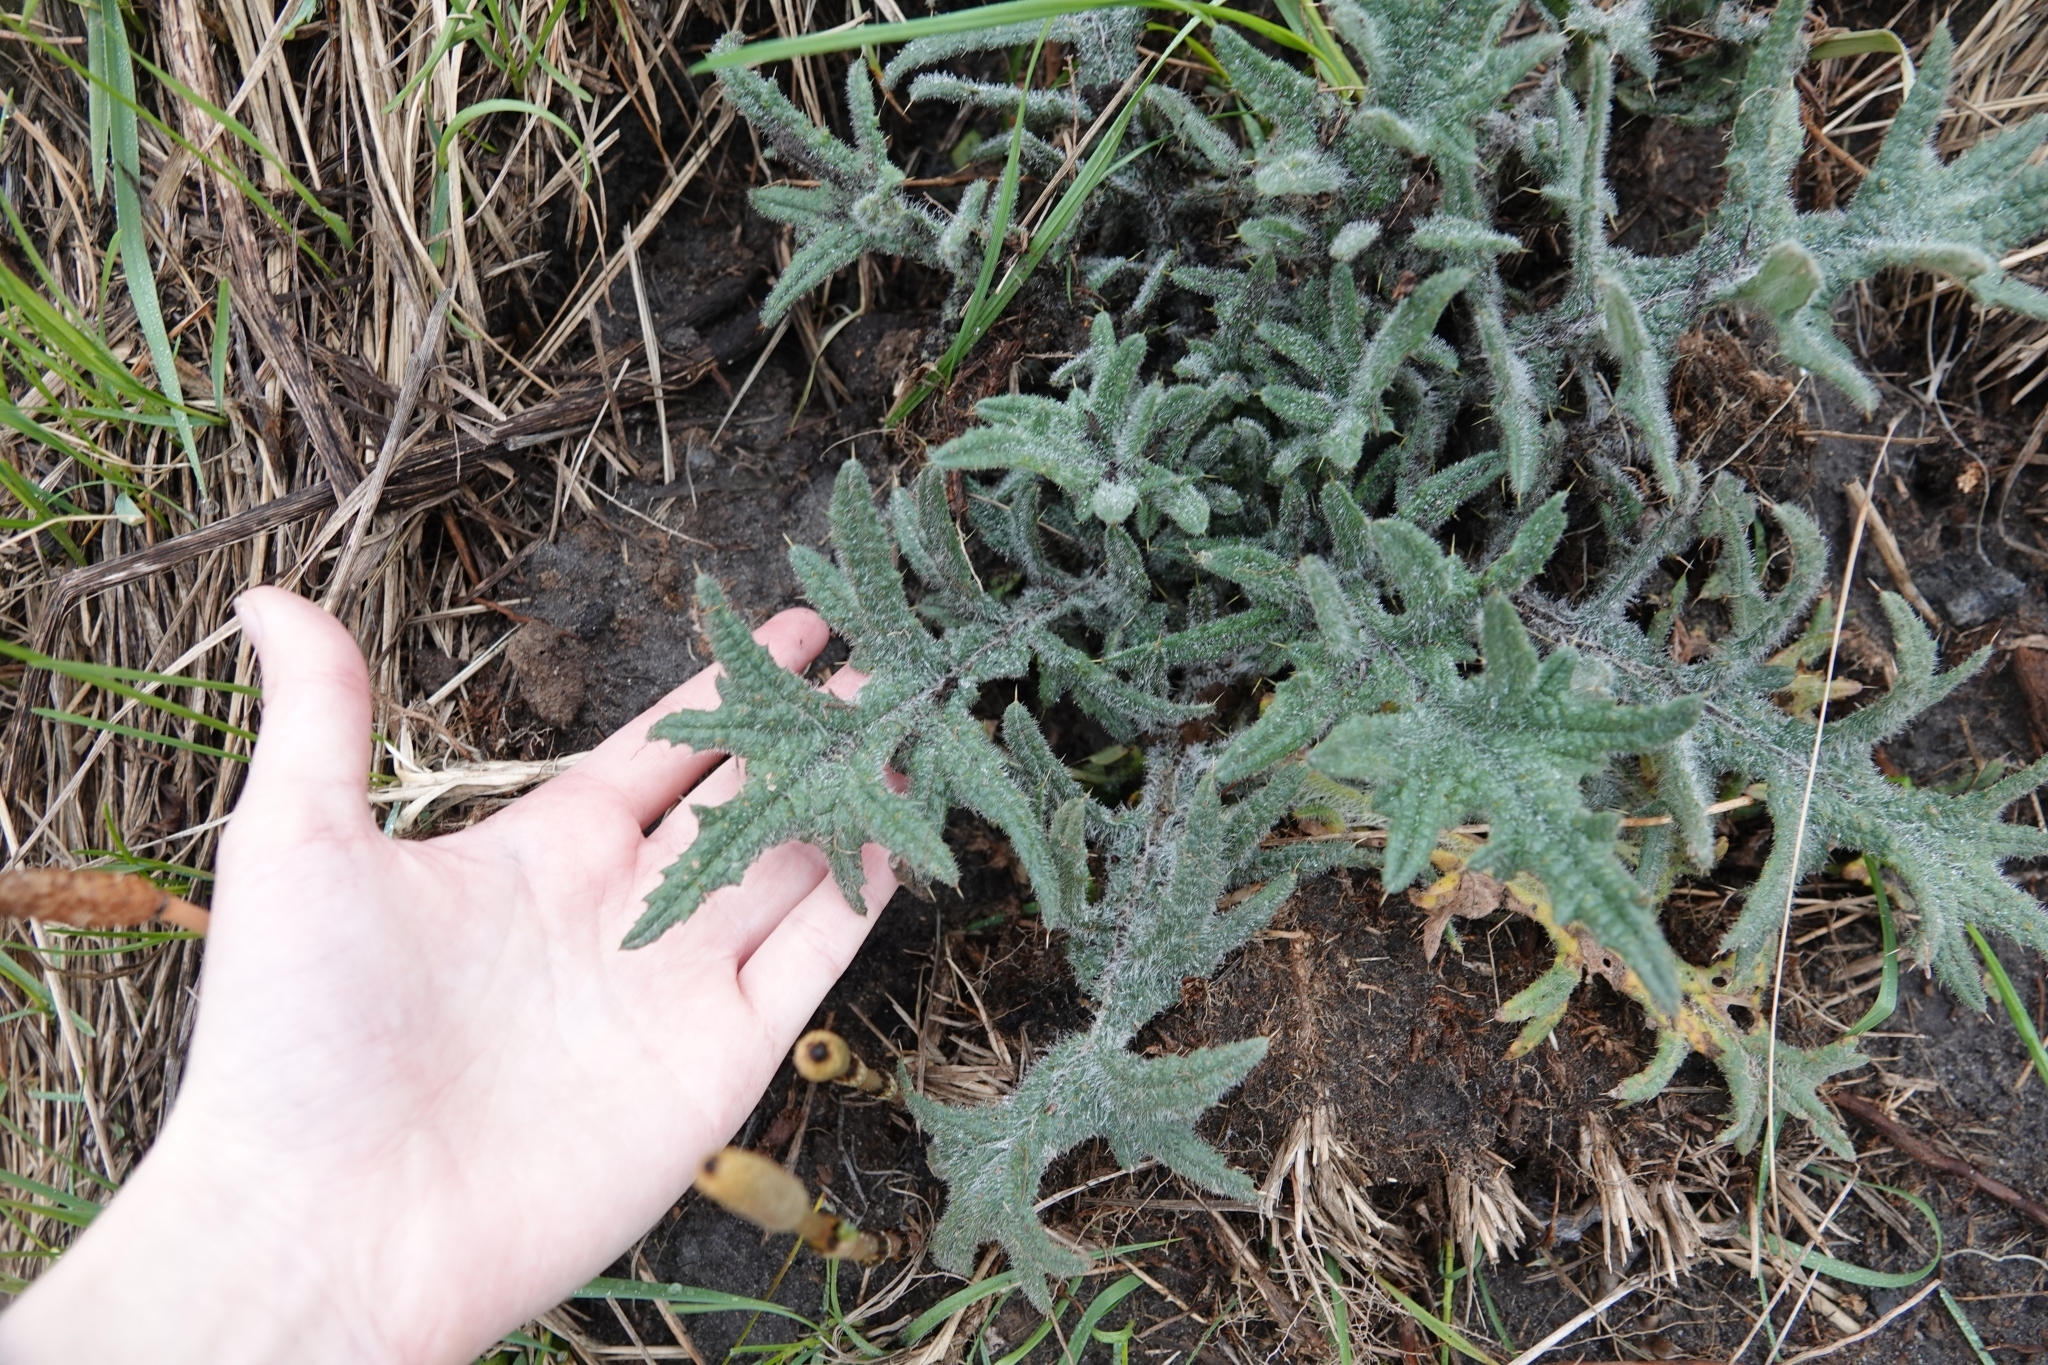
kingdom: Plantae
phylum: Tracheophyta
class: Magnoliopsida
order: Asterales
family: Asteraceae
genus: Cirsium
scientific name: Cirsium vulgare
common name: Bull thistle
